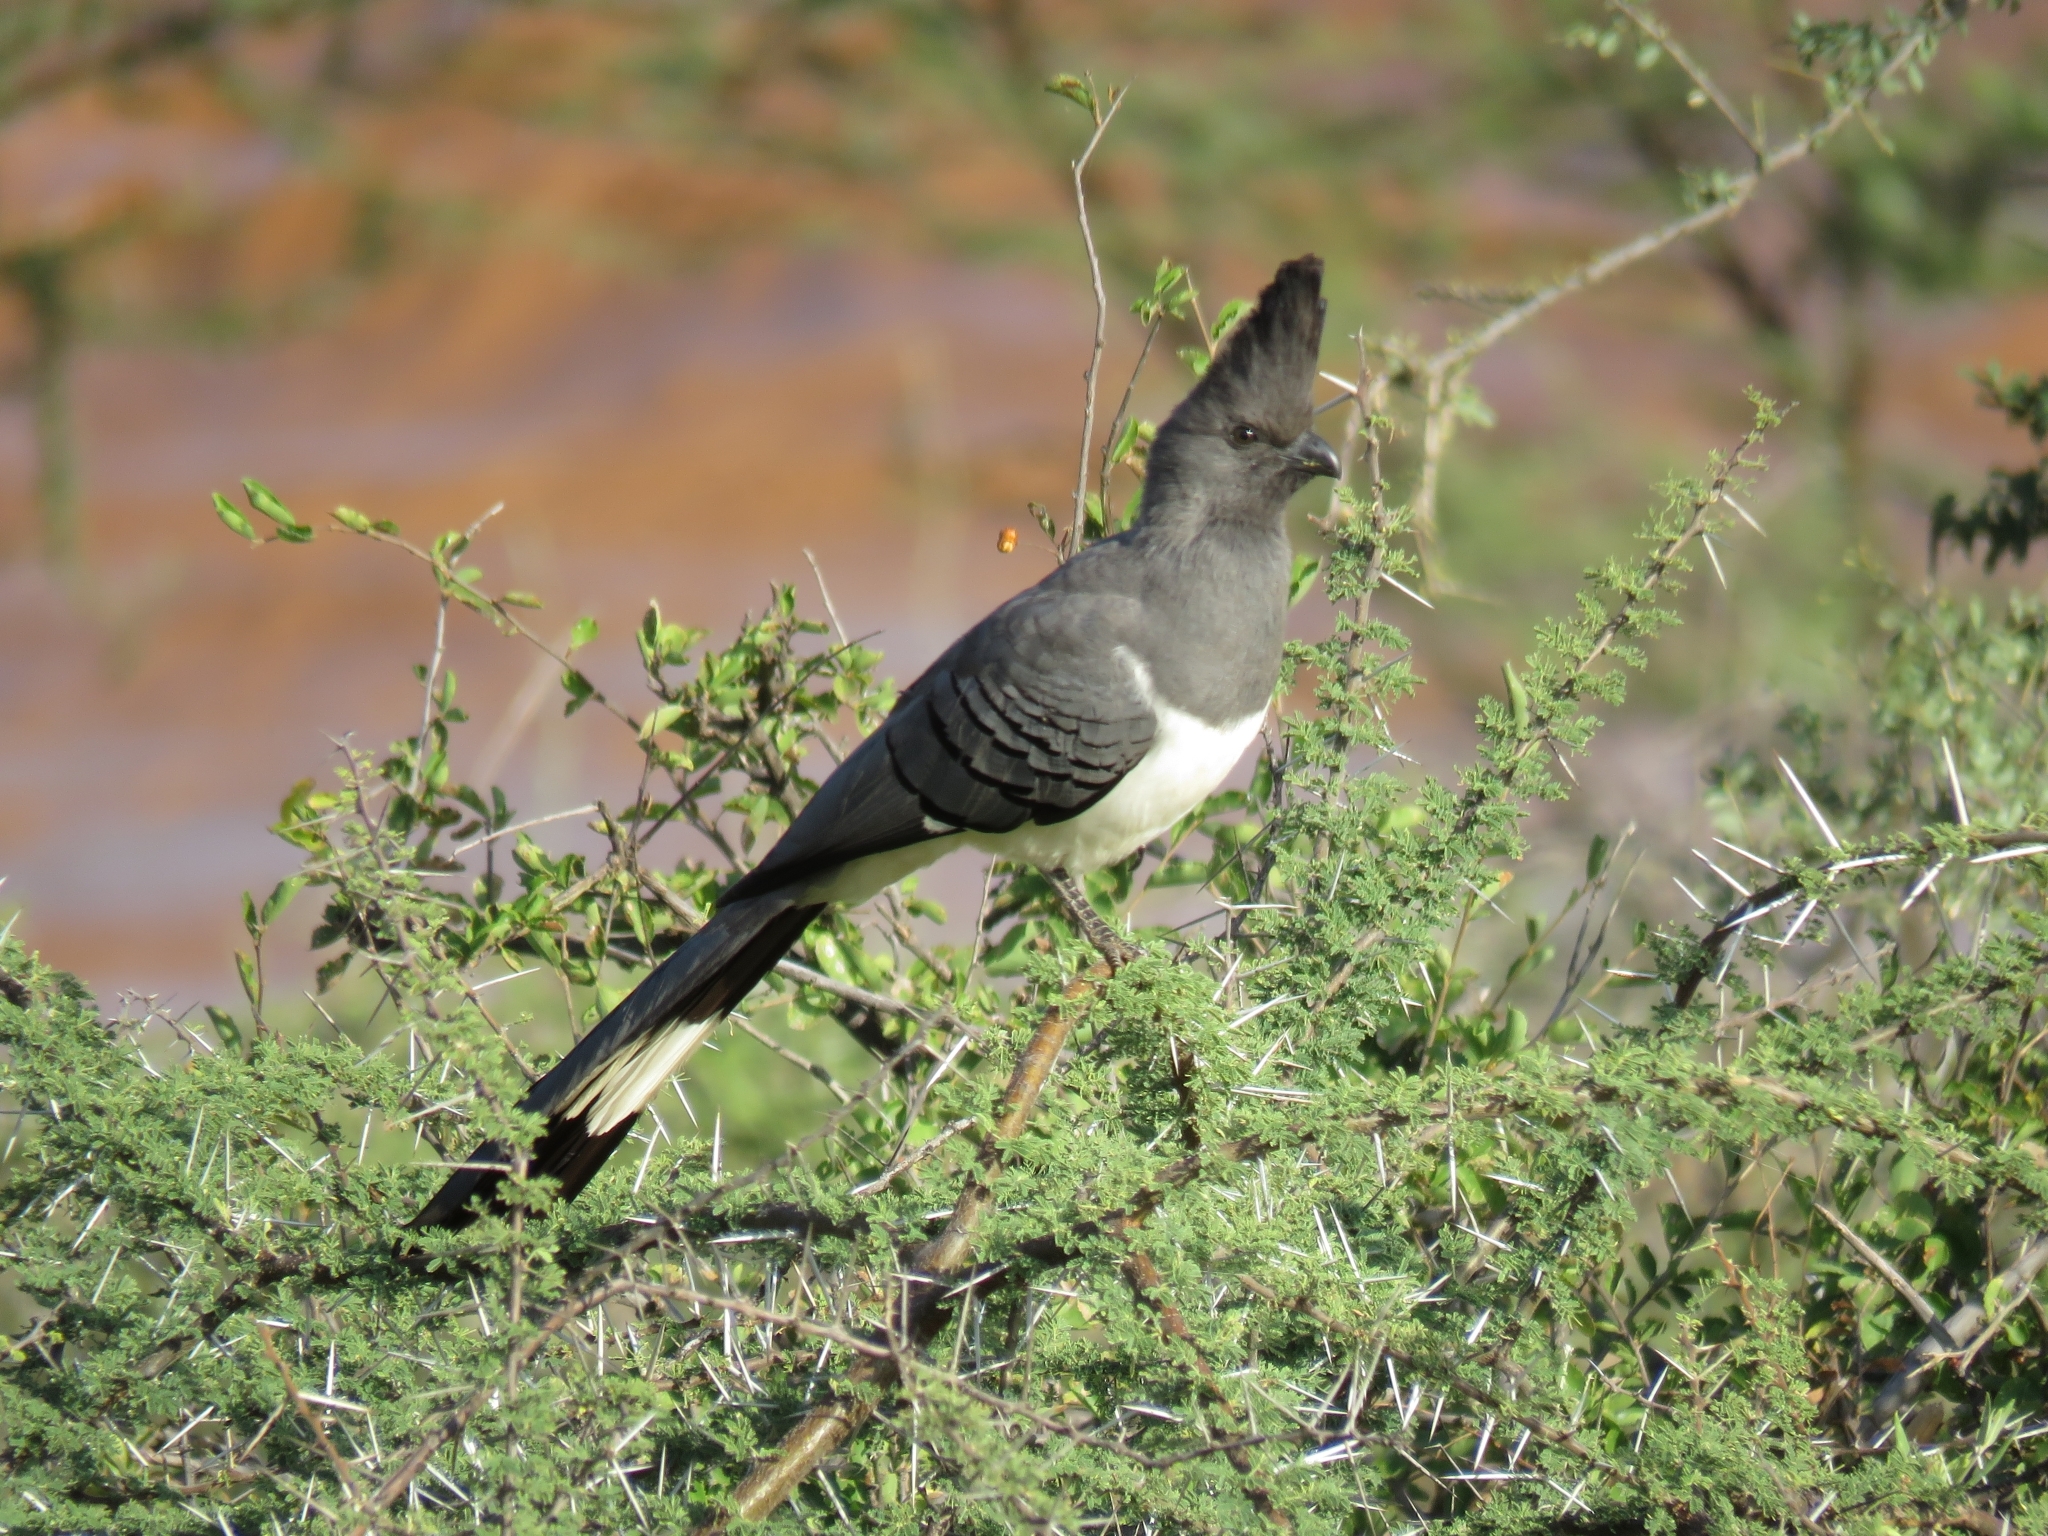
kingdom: Animalia
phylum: Chordata
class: Aves
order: Musophagiformes
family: Musophagidae
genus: Corythaixoides
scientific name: Corythaixoides leucogaster
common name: White-bellied go-away-bird
